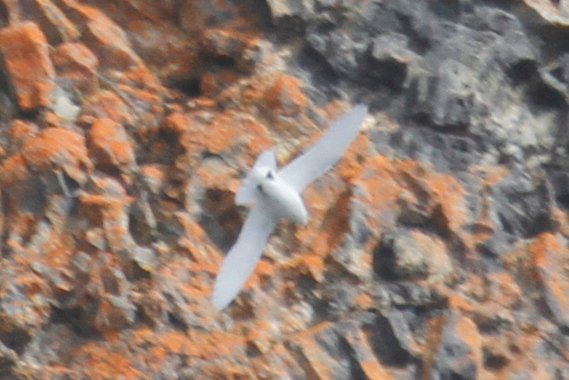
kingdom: Animalia
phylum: Chordata
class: Aves
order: Procellariiformes
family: Procellariidae
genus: Pagodroma
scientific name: Pagodroma nivea
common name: Snow petrel
